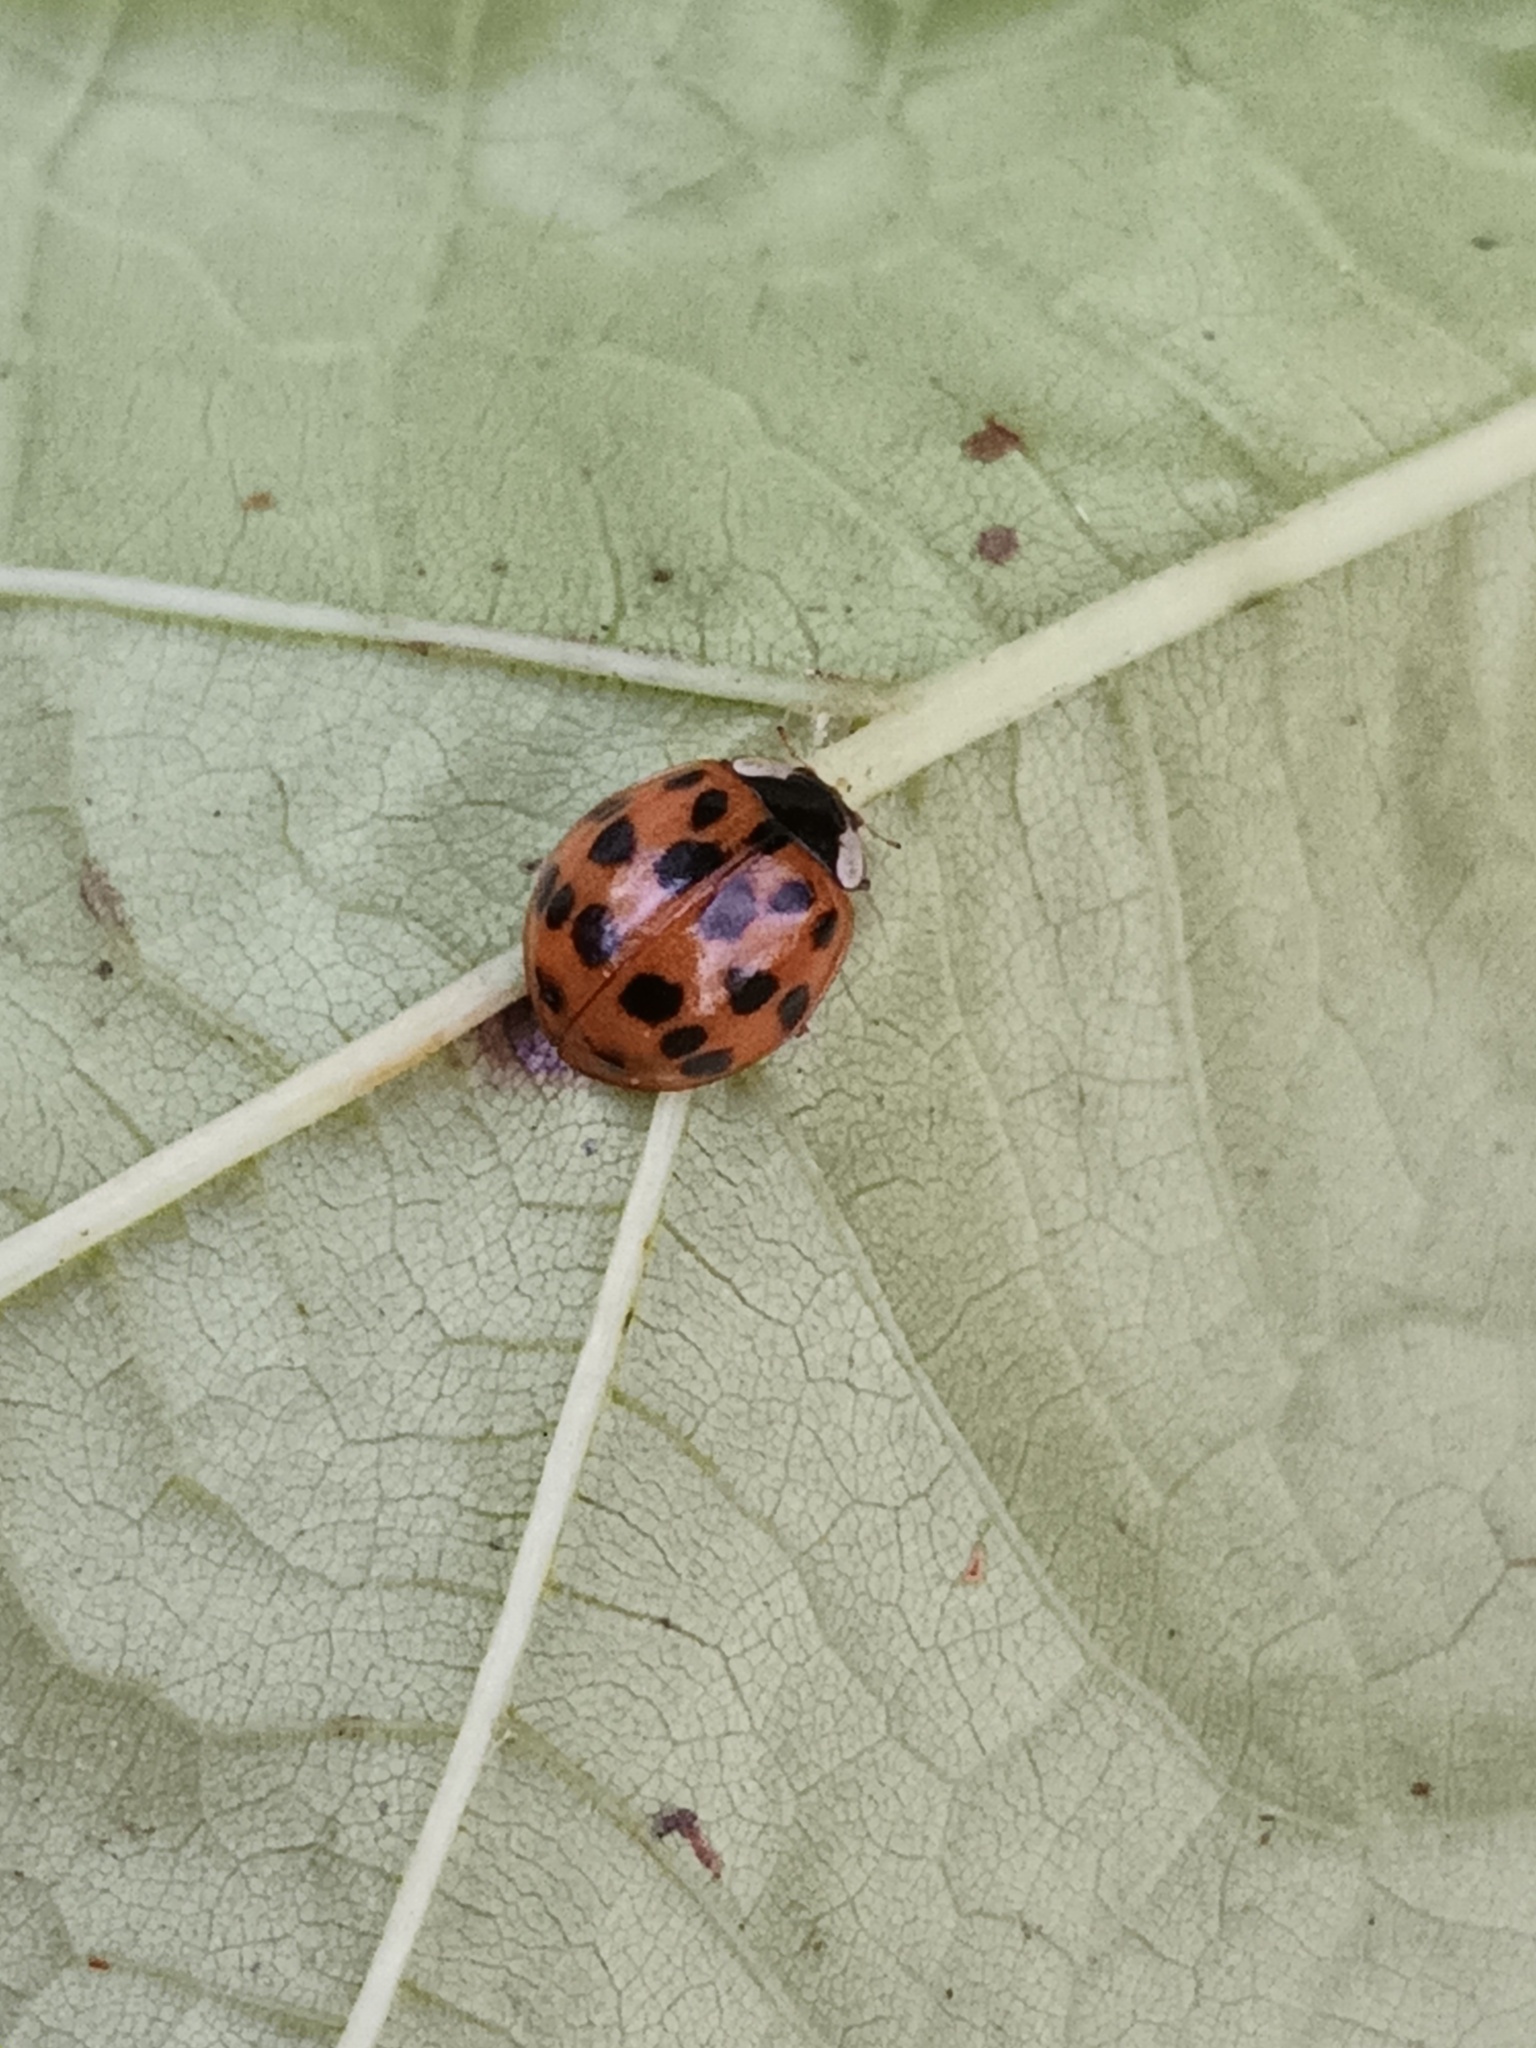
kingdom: Animalia
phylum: Arthropoda
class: Insecta
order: Coleoptera
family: Coccinellidae
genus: Harmonia
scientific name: Harmonia axyridis
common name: Harlequin ladybird
